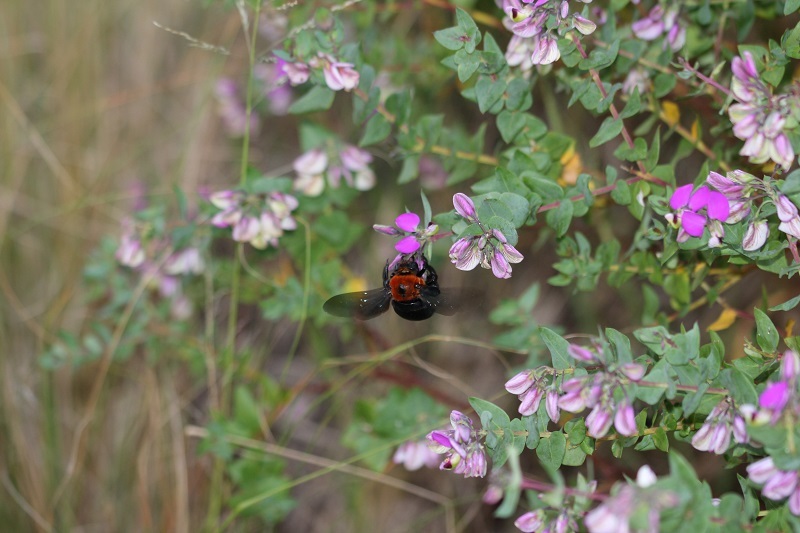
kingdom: Animalia
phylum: Arthropoda
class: Insecta
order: Hymenoptera
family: Apidae
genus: Xylocopa
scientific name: Xylocopa flavorufa
